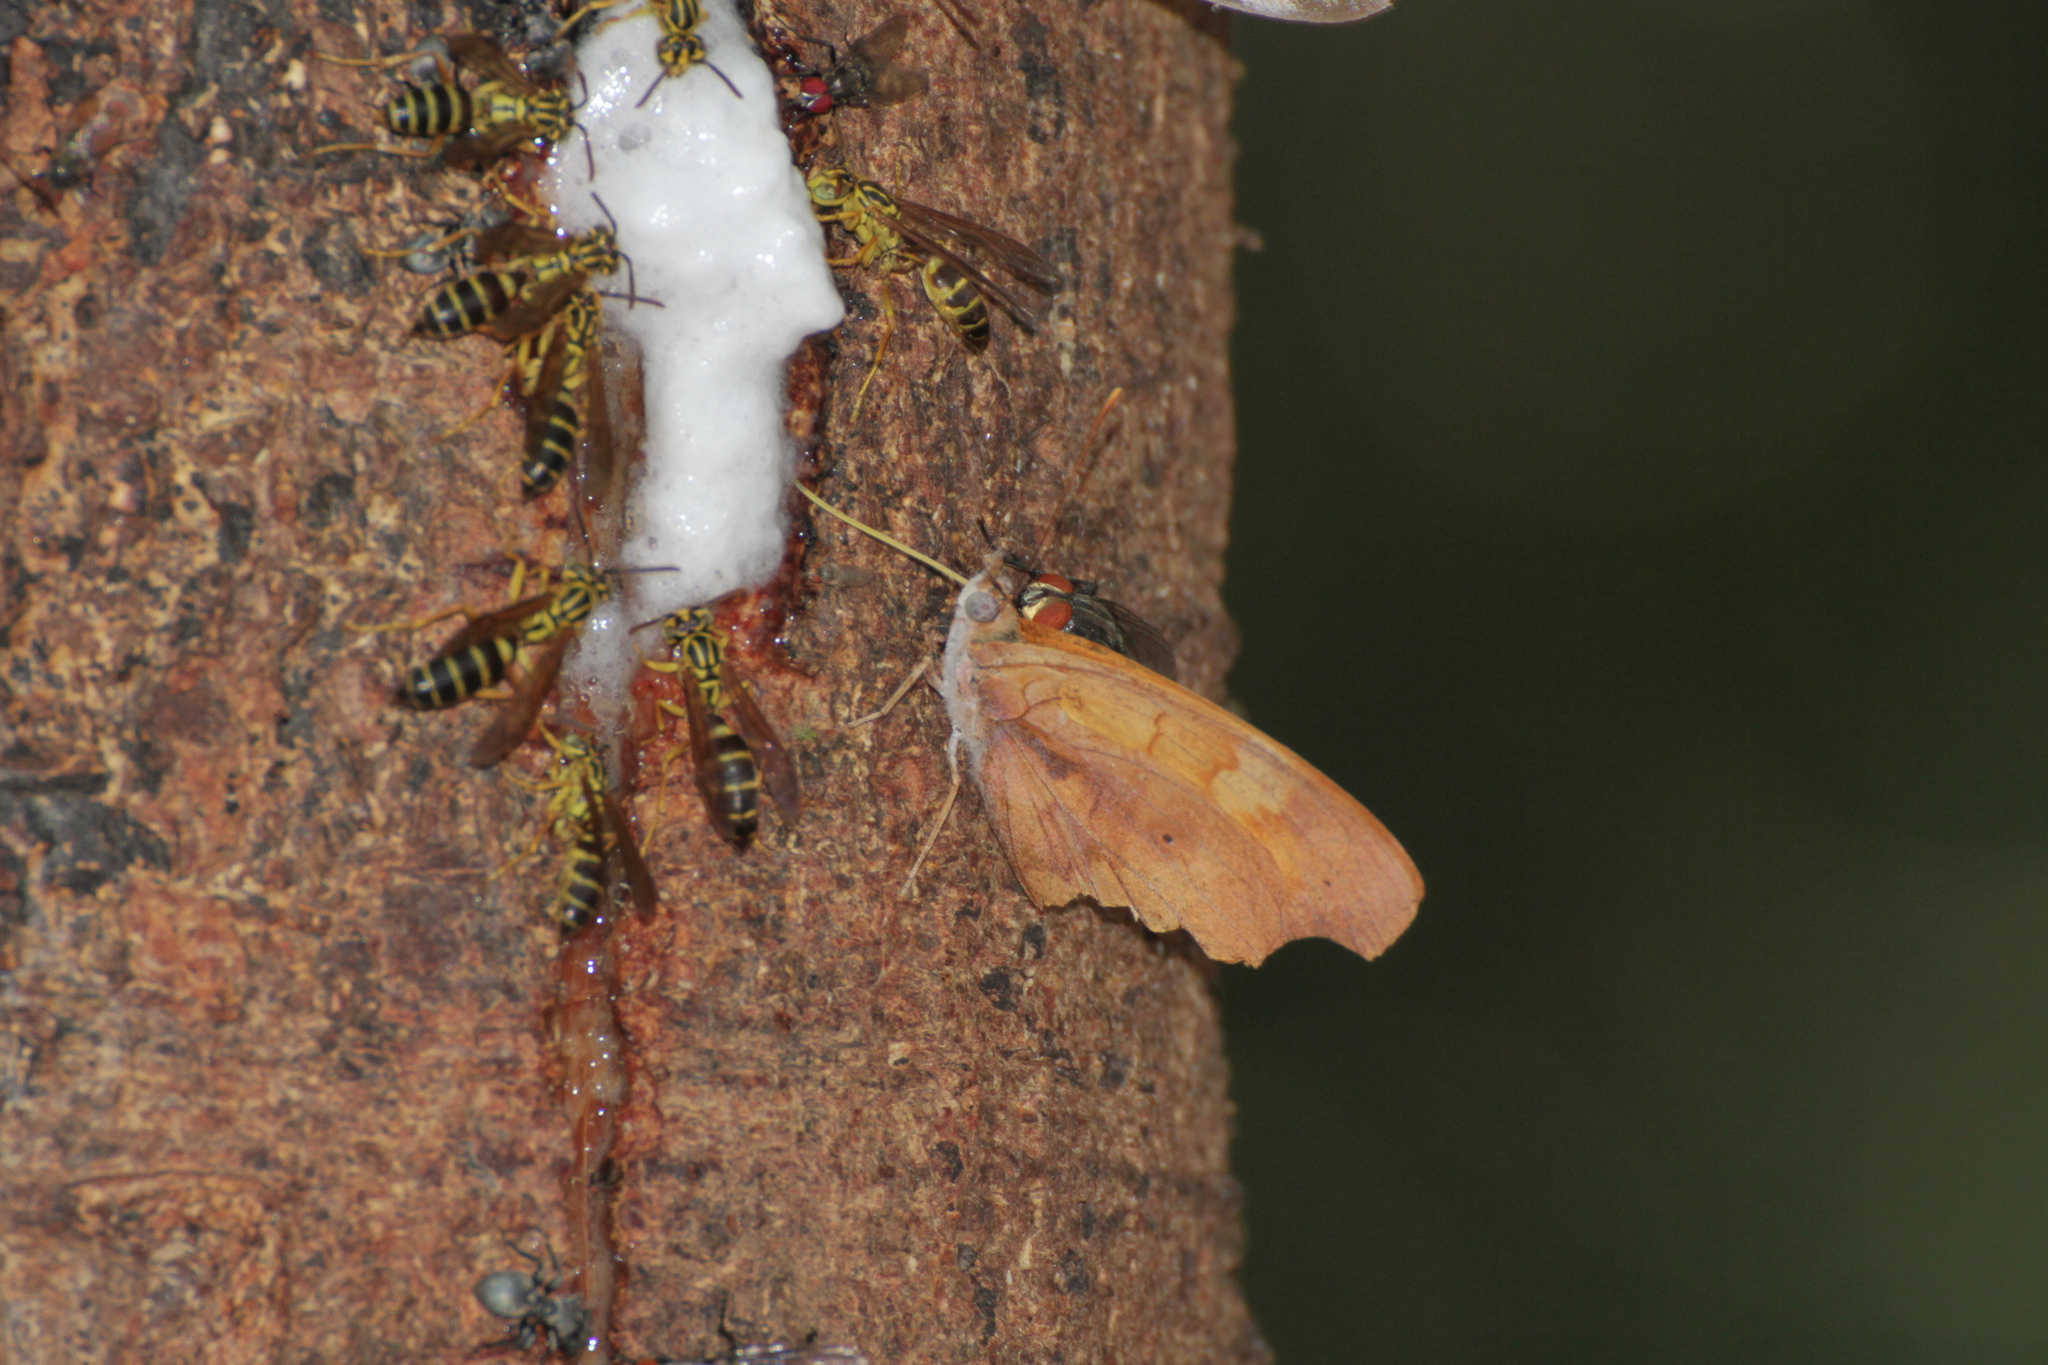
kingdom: Animalia
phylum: Arthropoda
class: Insecta
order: Lepidoptera
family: Nymphalidae
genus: Temenis
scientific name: Temenis laothoe
